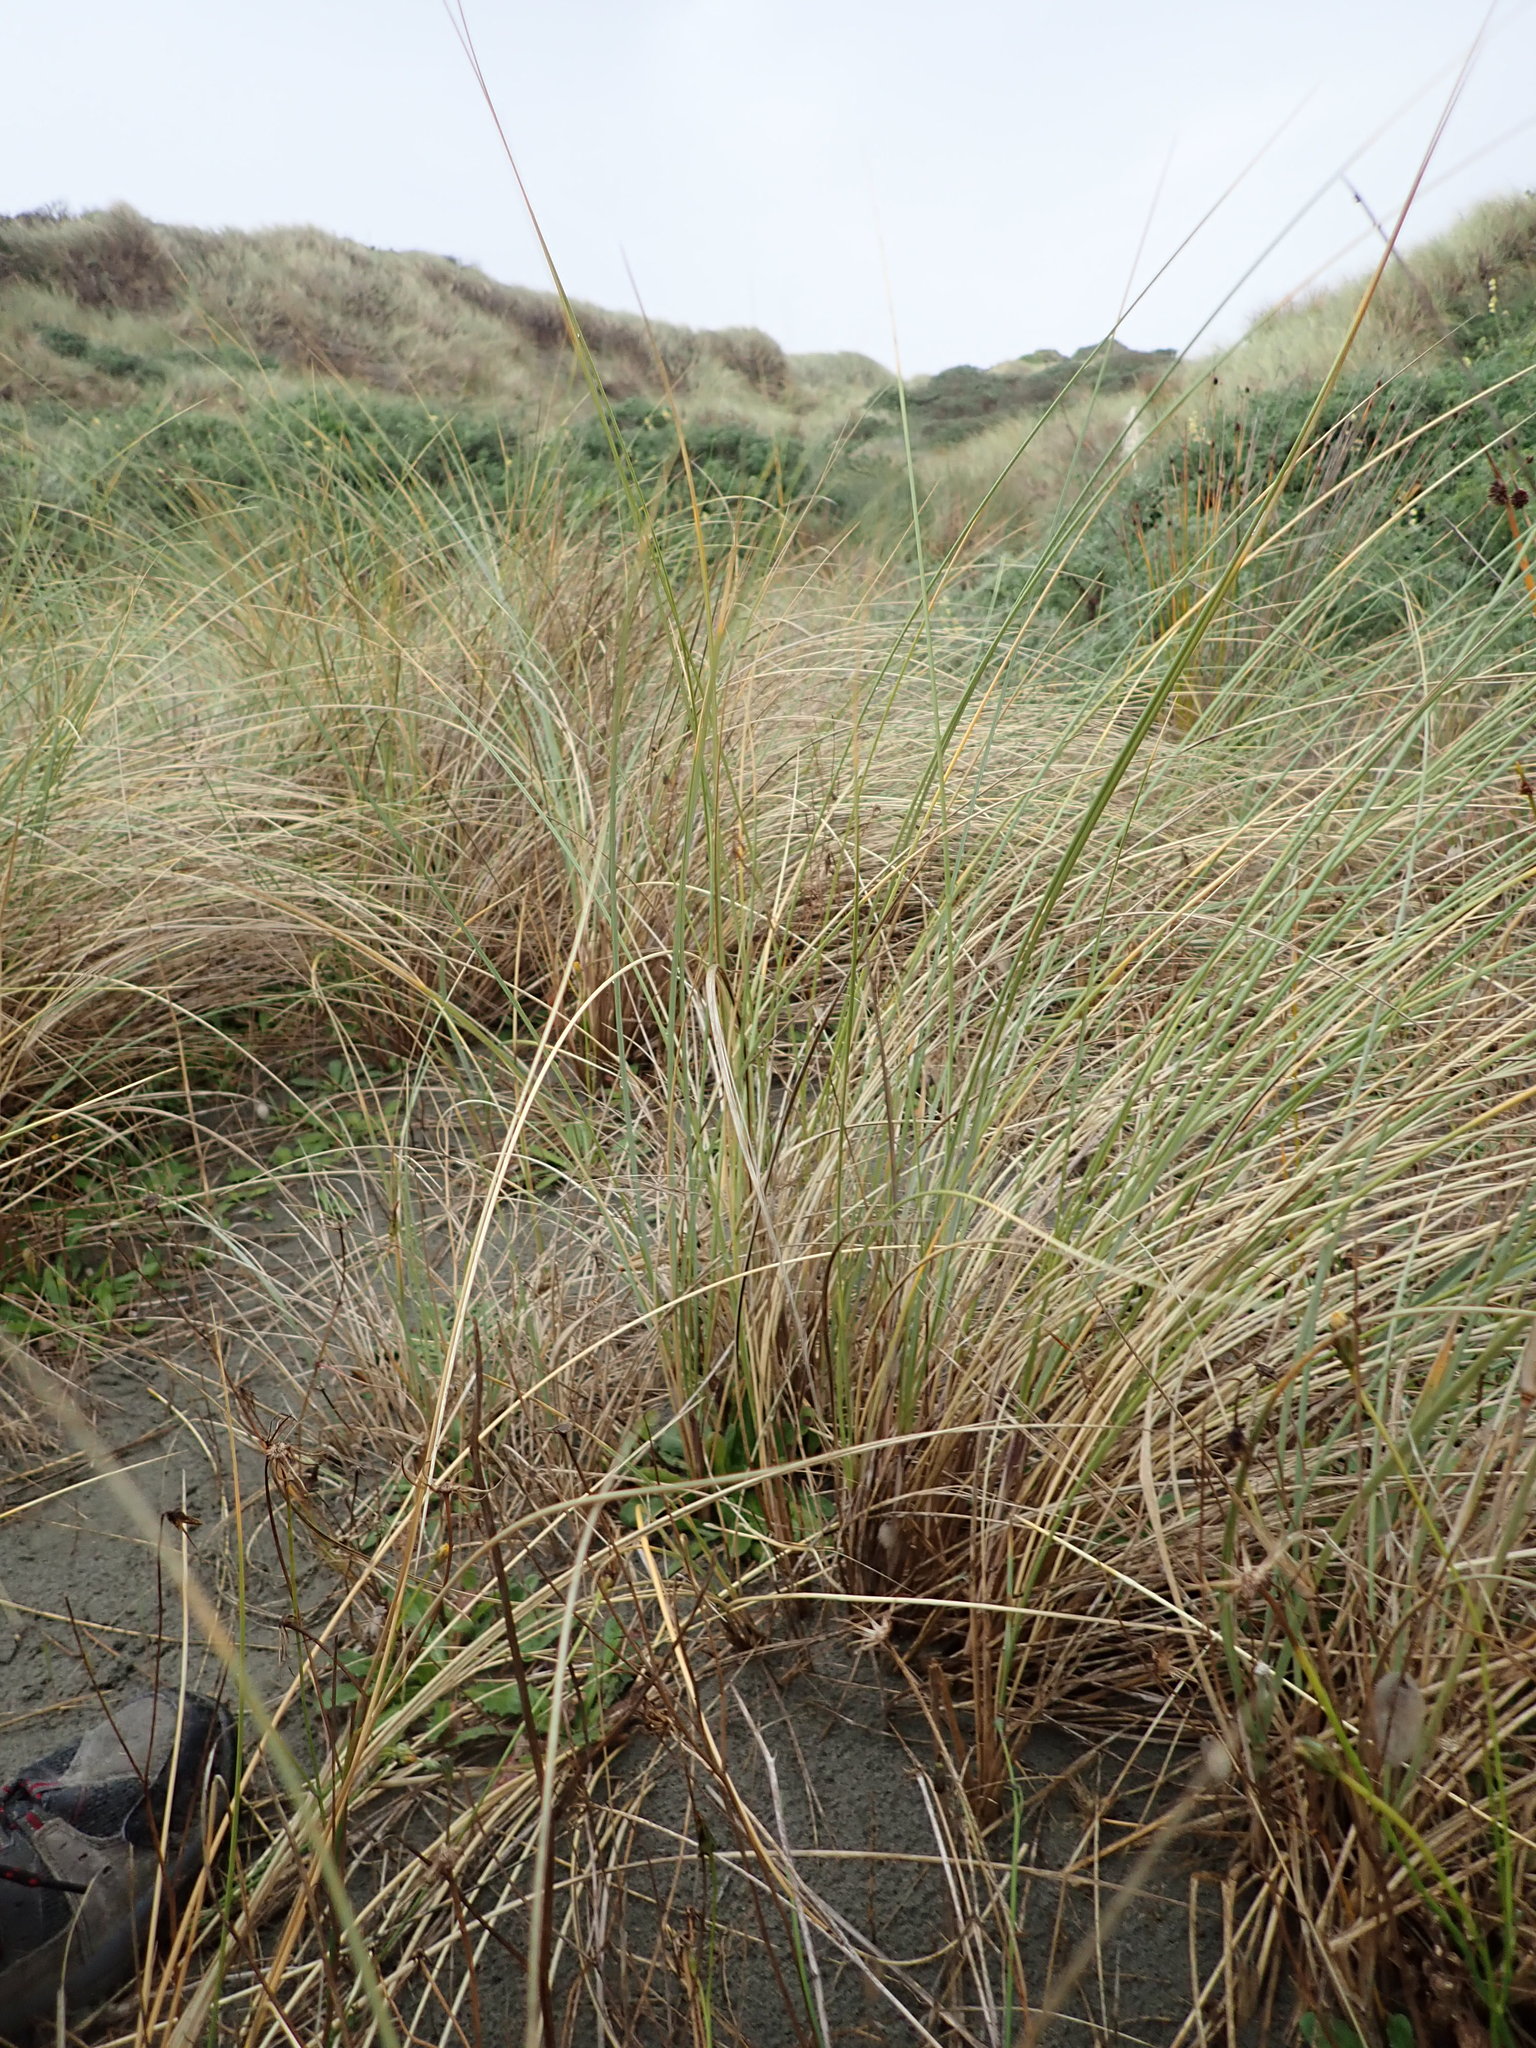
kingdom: Plantae
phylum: Tracheophyta
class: Liliopsida
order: Poales
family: Poaceae
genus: Calamagrostis
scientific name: Calamagrostis arenaria
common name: European beachgrass
